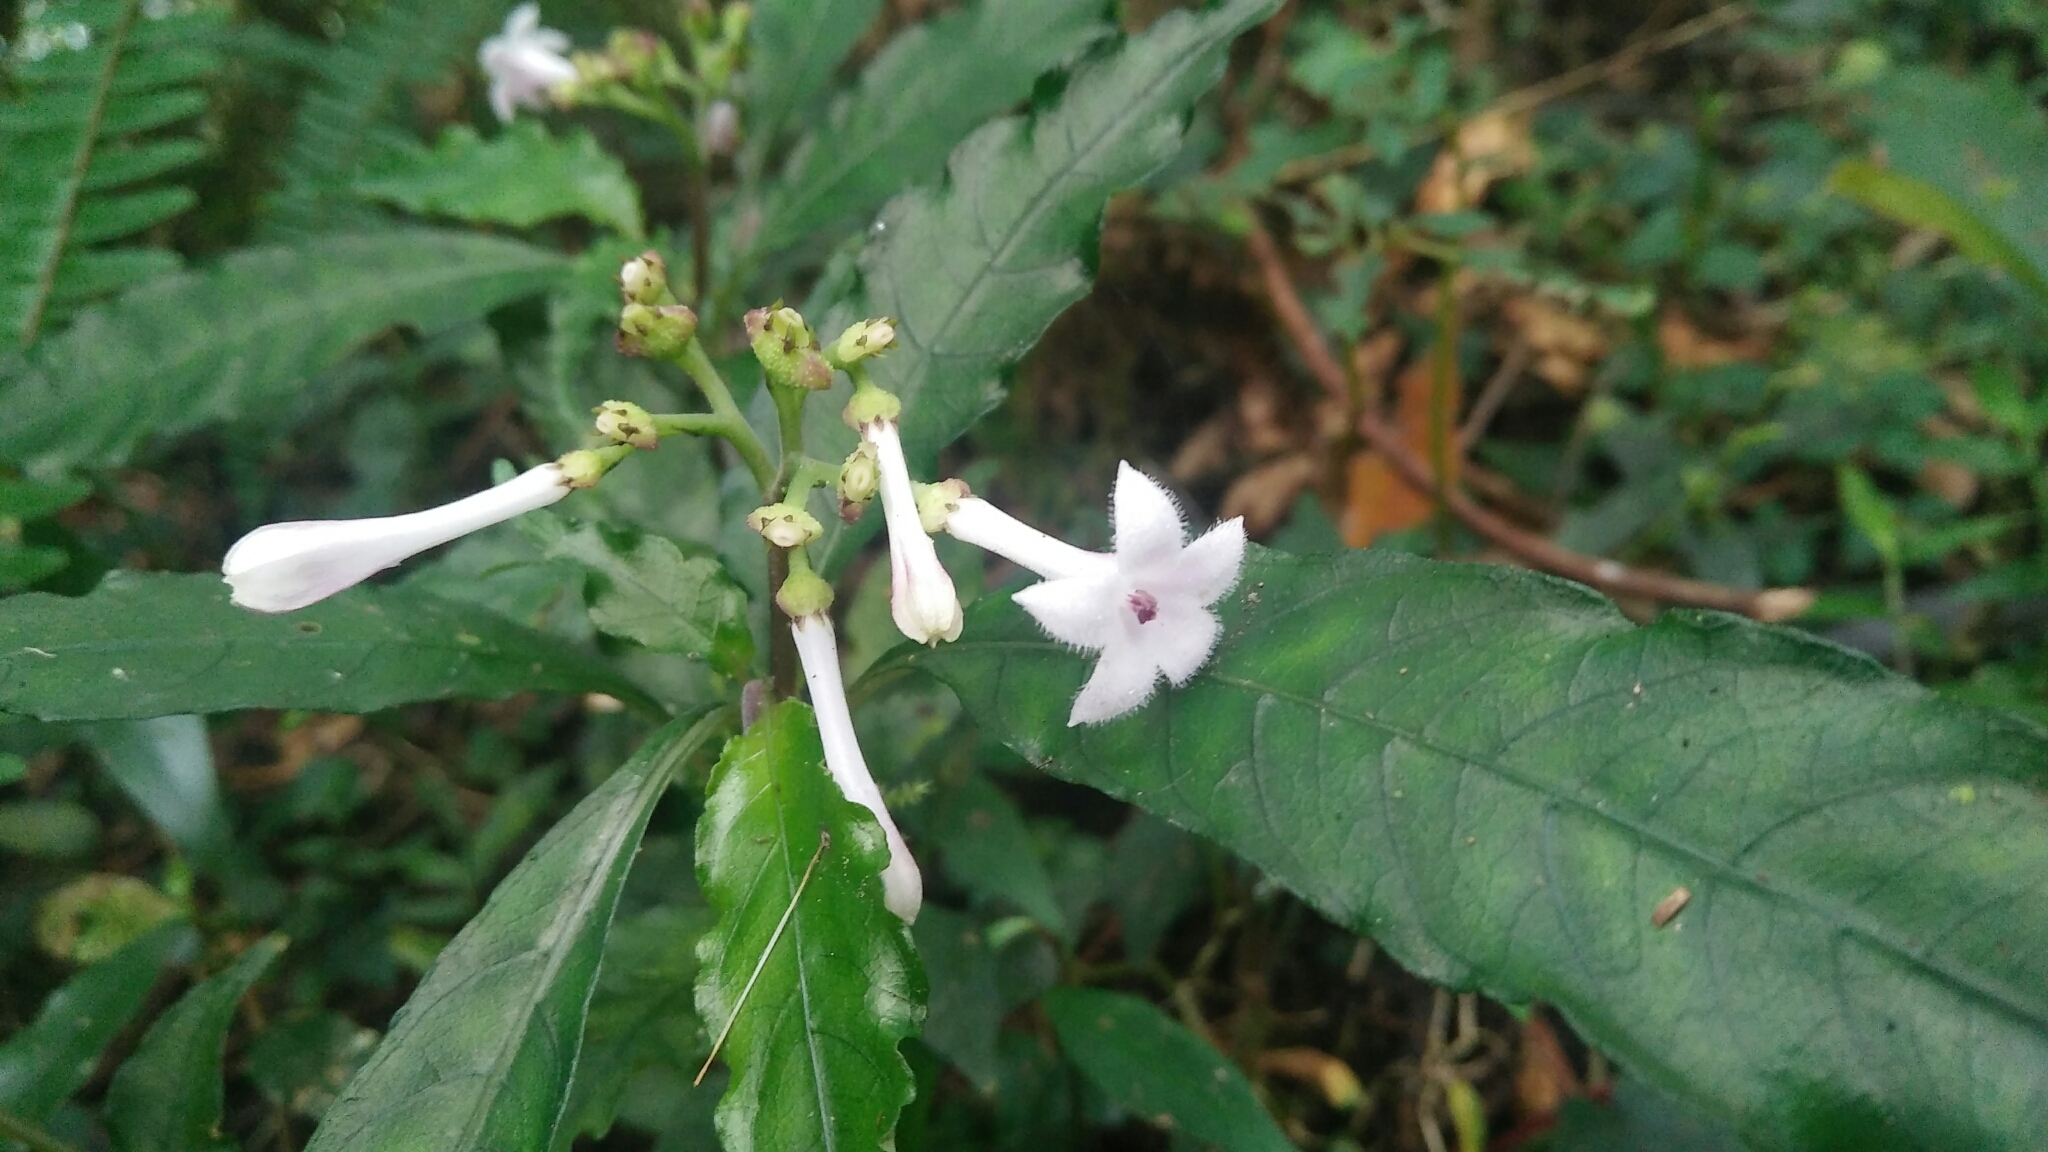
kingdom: Plantae
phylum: Tracheophyta
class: Magnoliopsida
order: Gentianales
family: Rubiaceae
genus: Ophiorrhiza
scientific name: Ophiorrhiza hayatana
